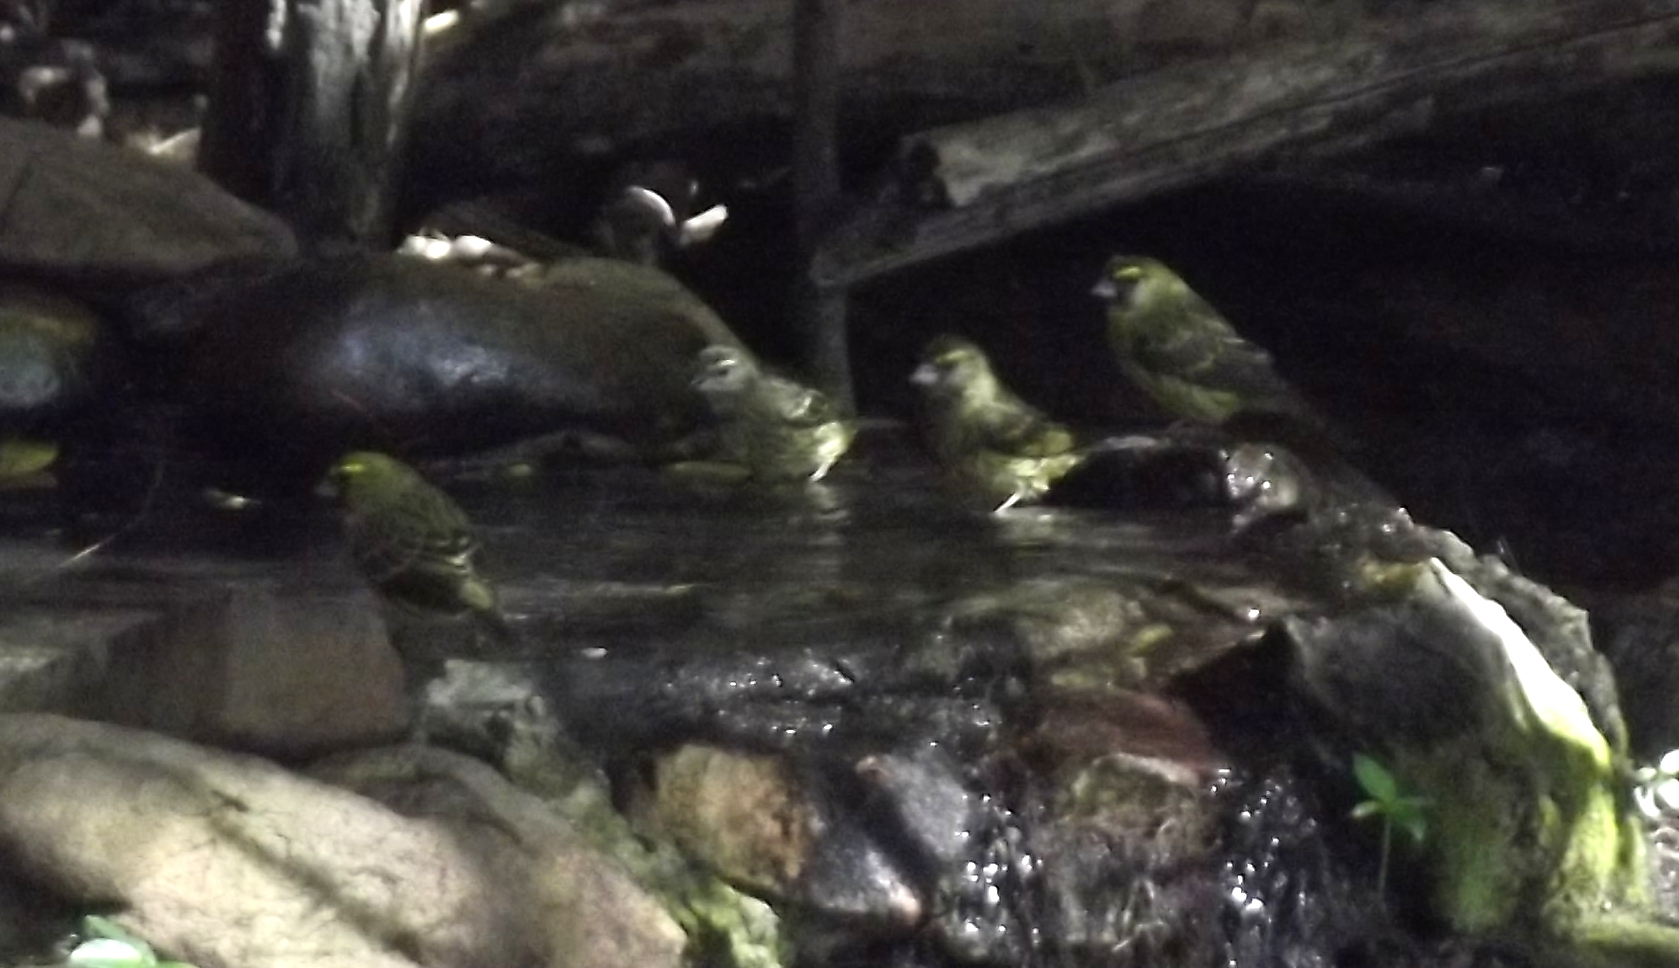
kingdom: Animalia
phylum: Chordata
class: Aves
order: Passeriformes
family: Fringillidae
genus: Crithagra
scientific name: Crithagra scotops
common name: Forest canary
